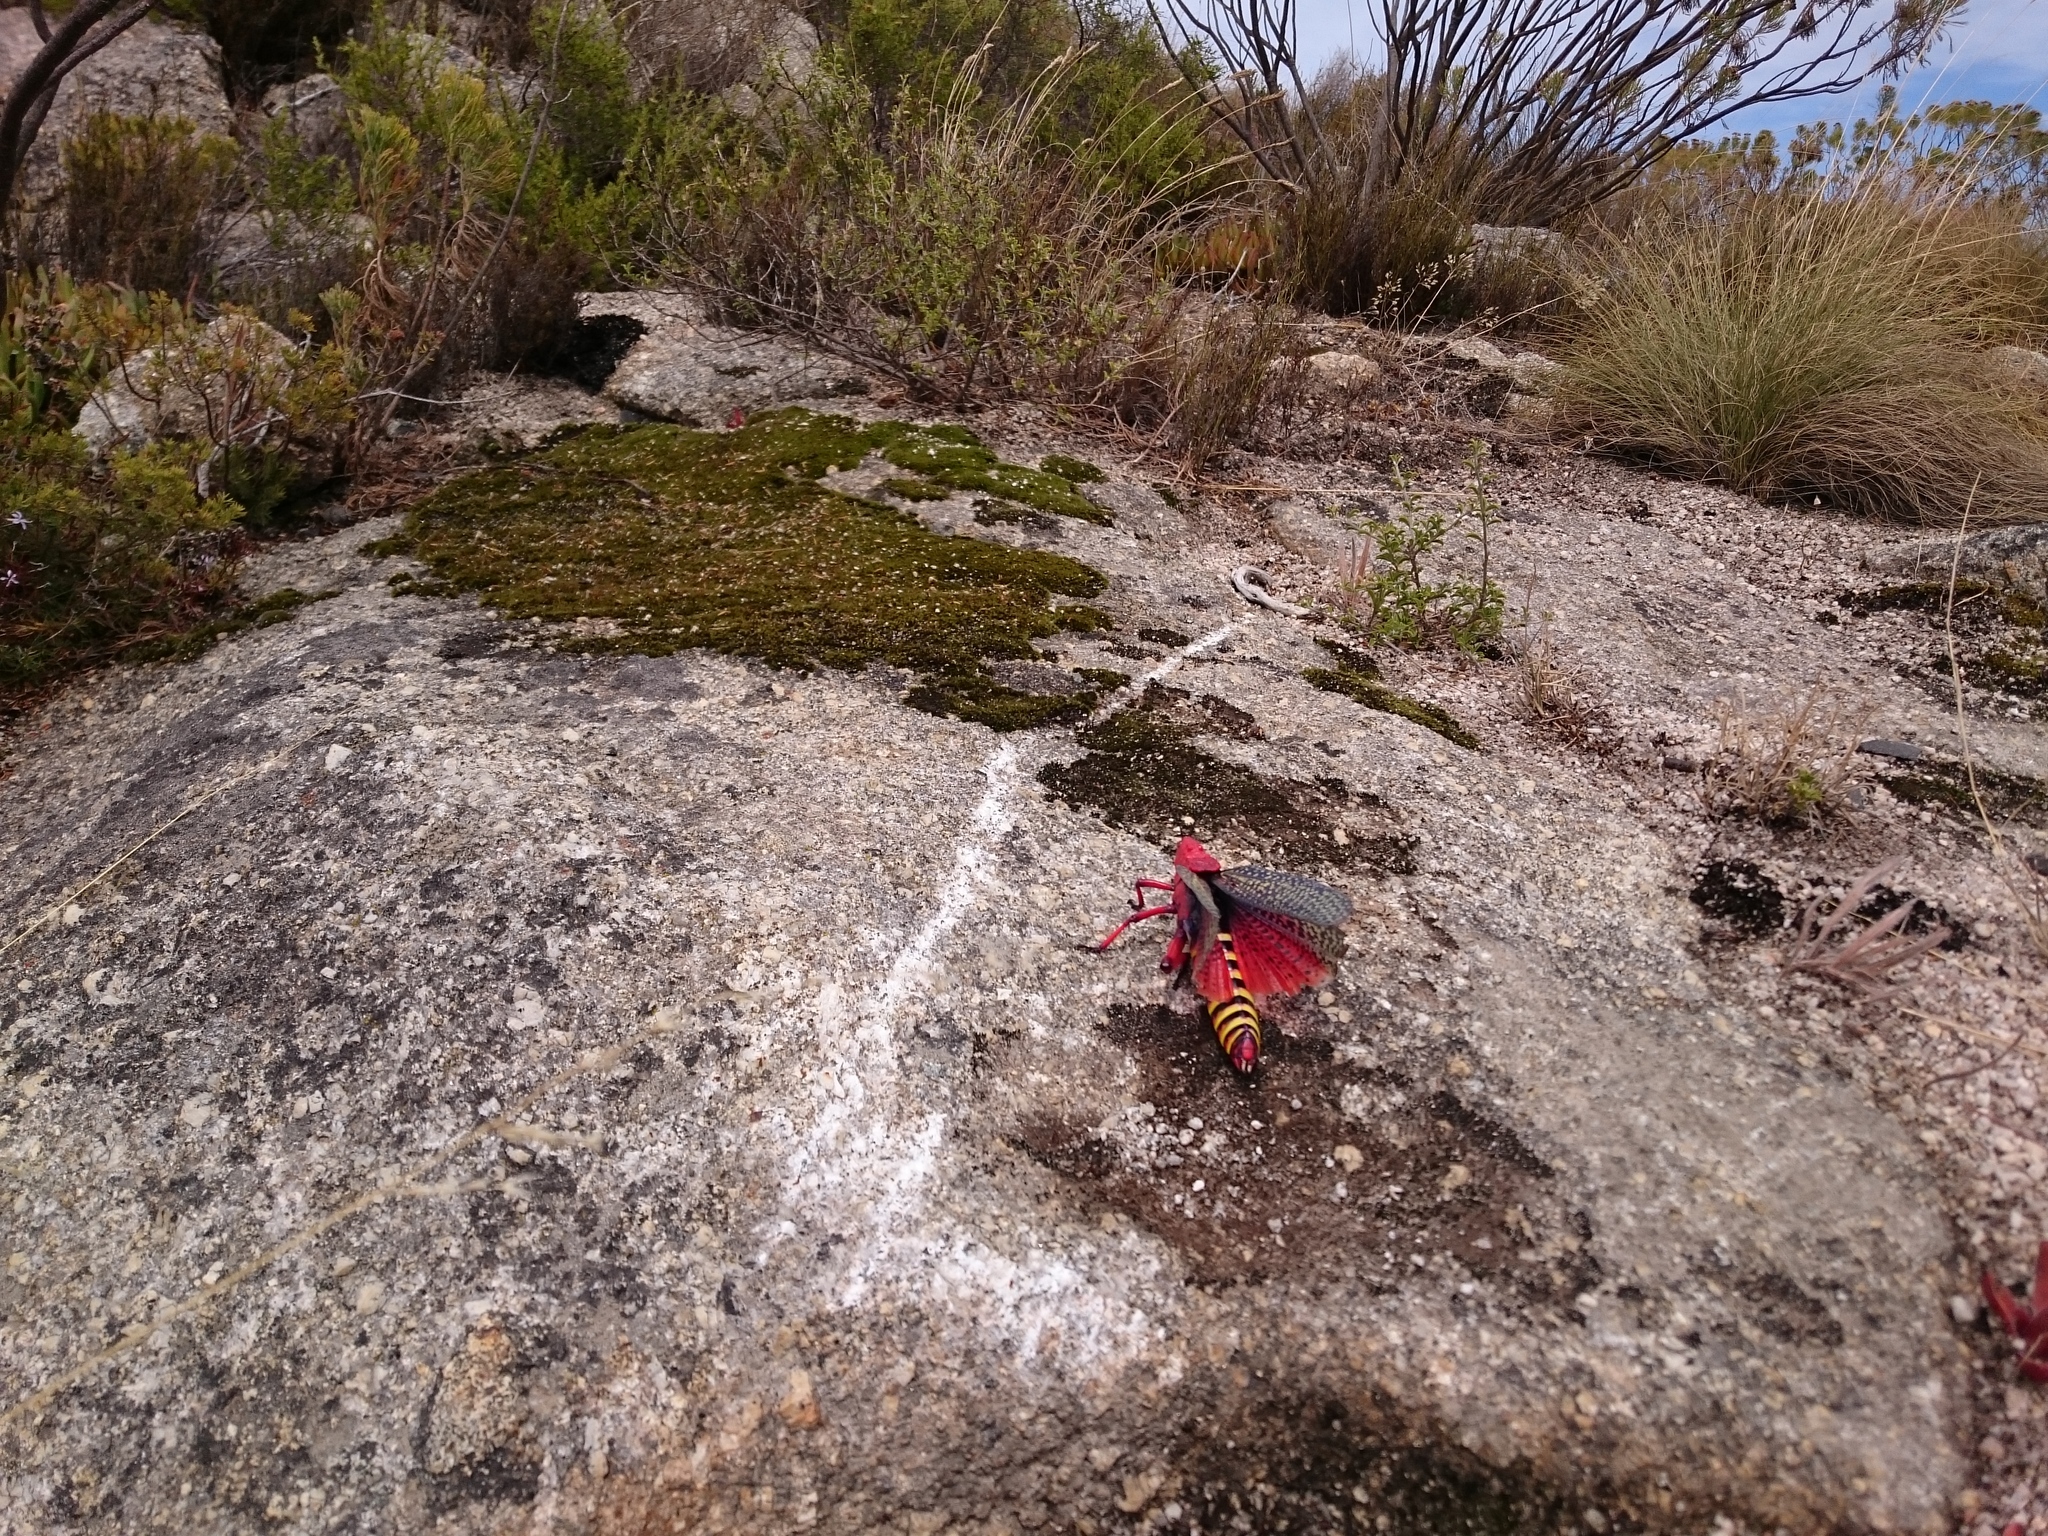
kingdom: Animalia
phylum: Arthropoda
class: Insecta
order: Orthoptera
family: Pyrgomorphidae
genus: Phymateus
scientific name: Phymateus morbillosus
